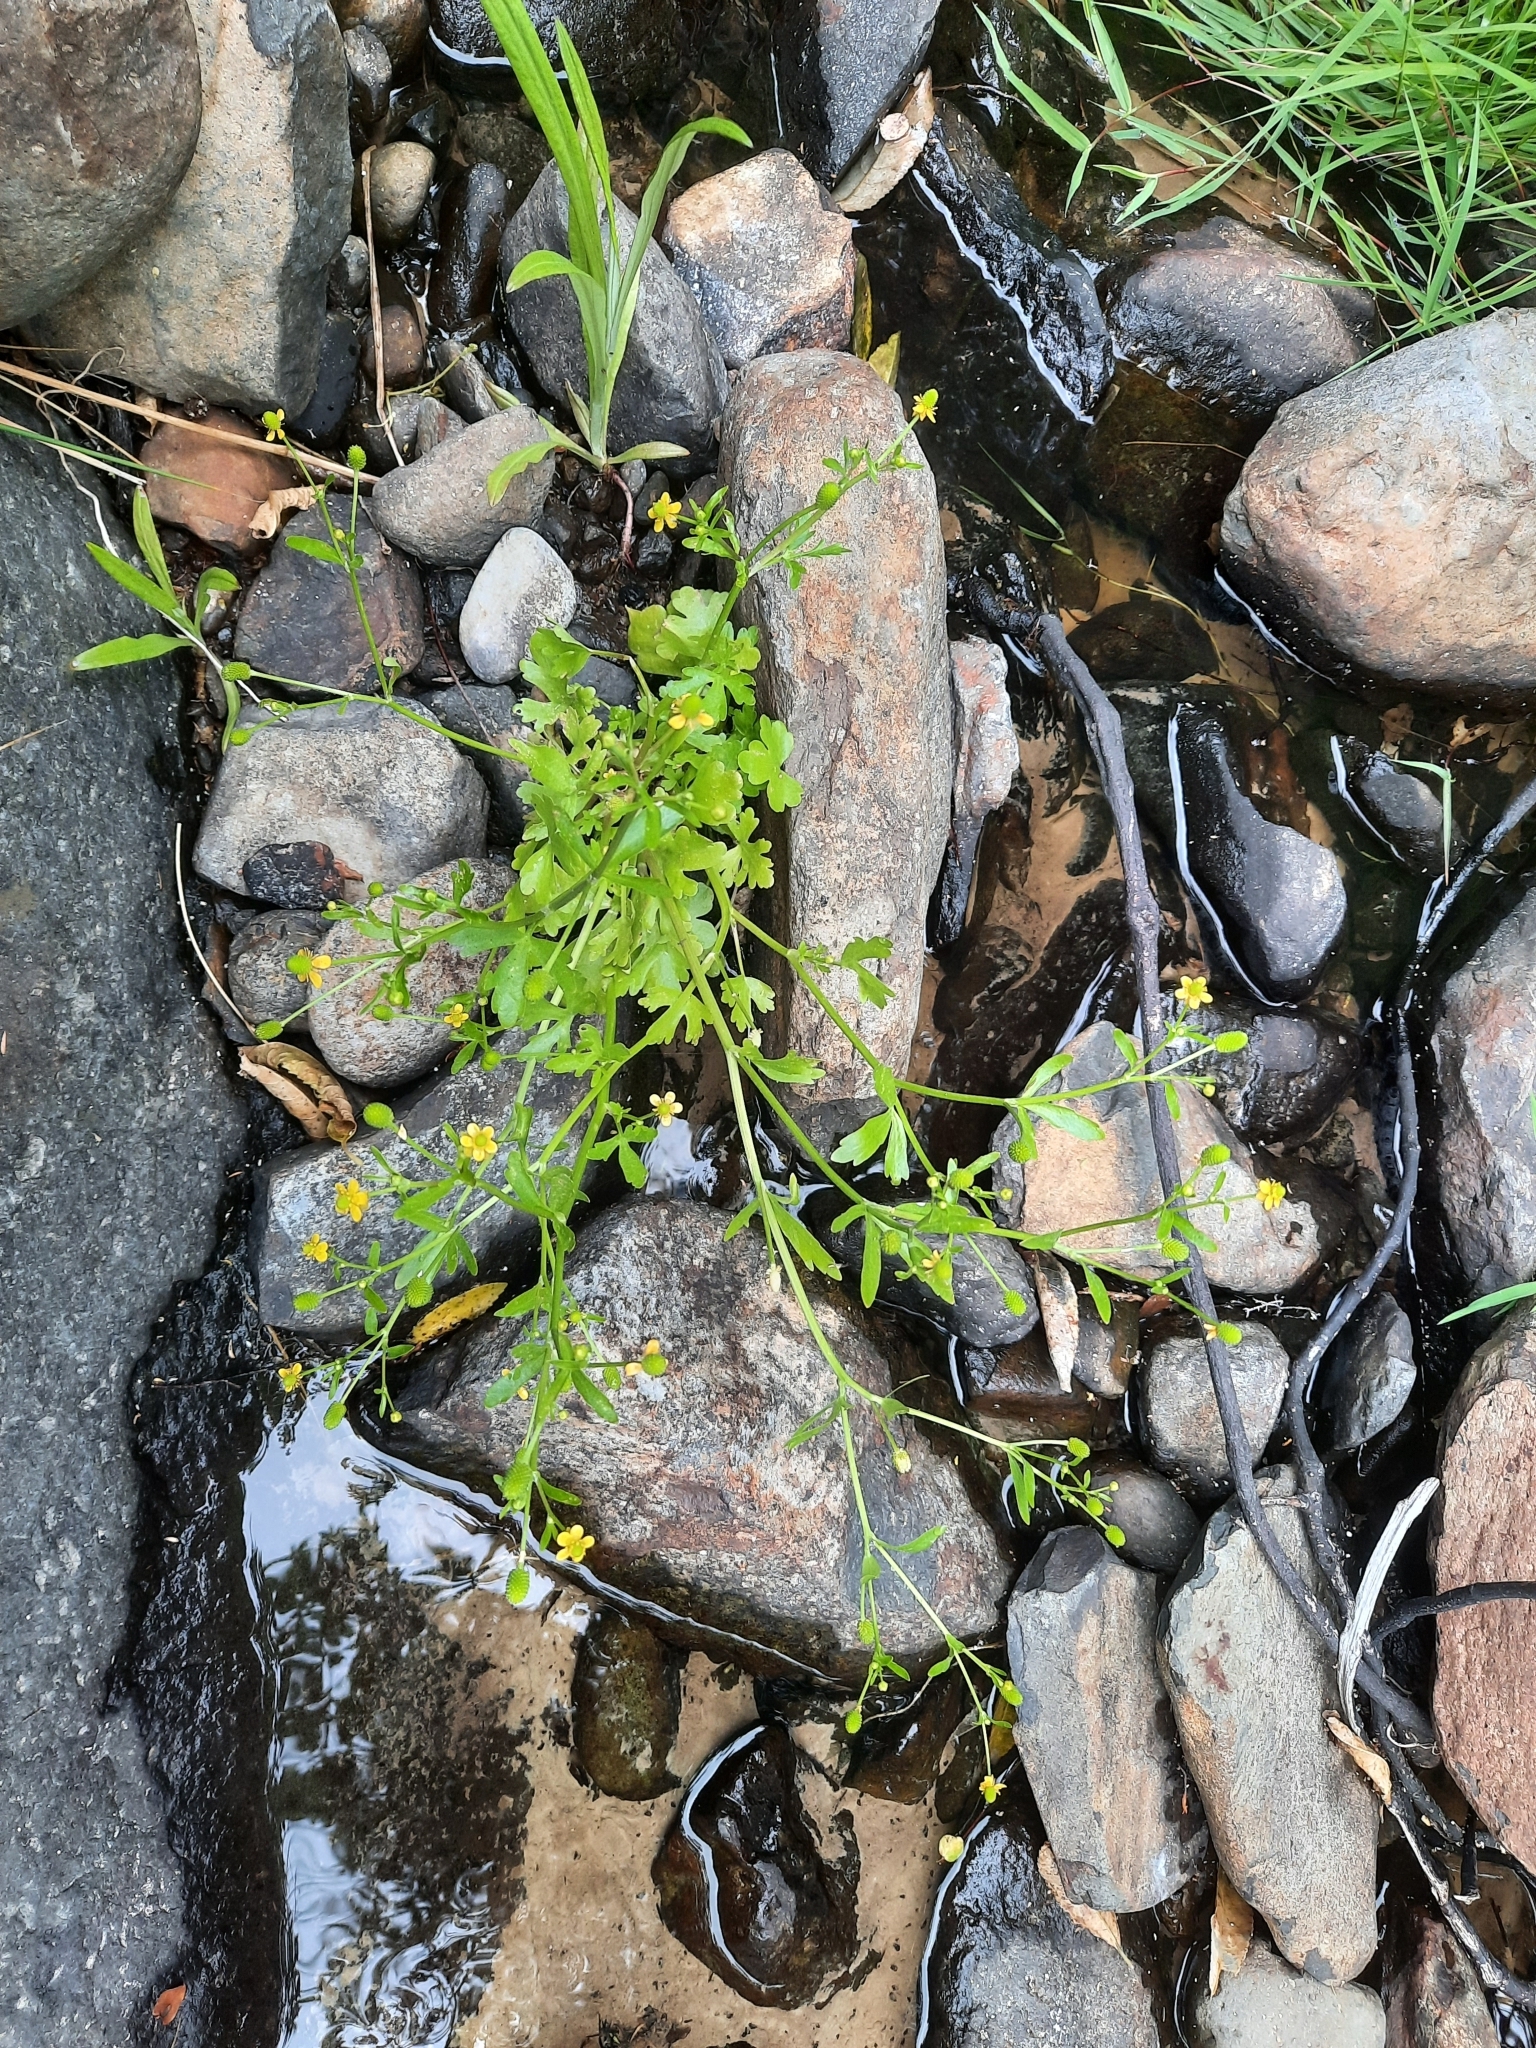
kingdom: Plantae
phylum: Tracheophyta
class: Magnoliopsida
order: Ranunculales
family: Ranunculaceae
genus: Ranunculus
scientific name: Ranunculus sceleratus
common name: Celery-leaved buttercup
